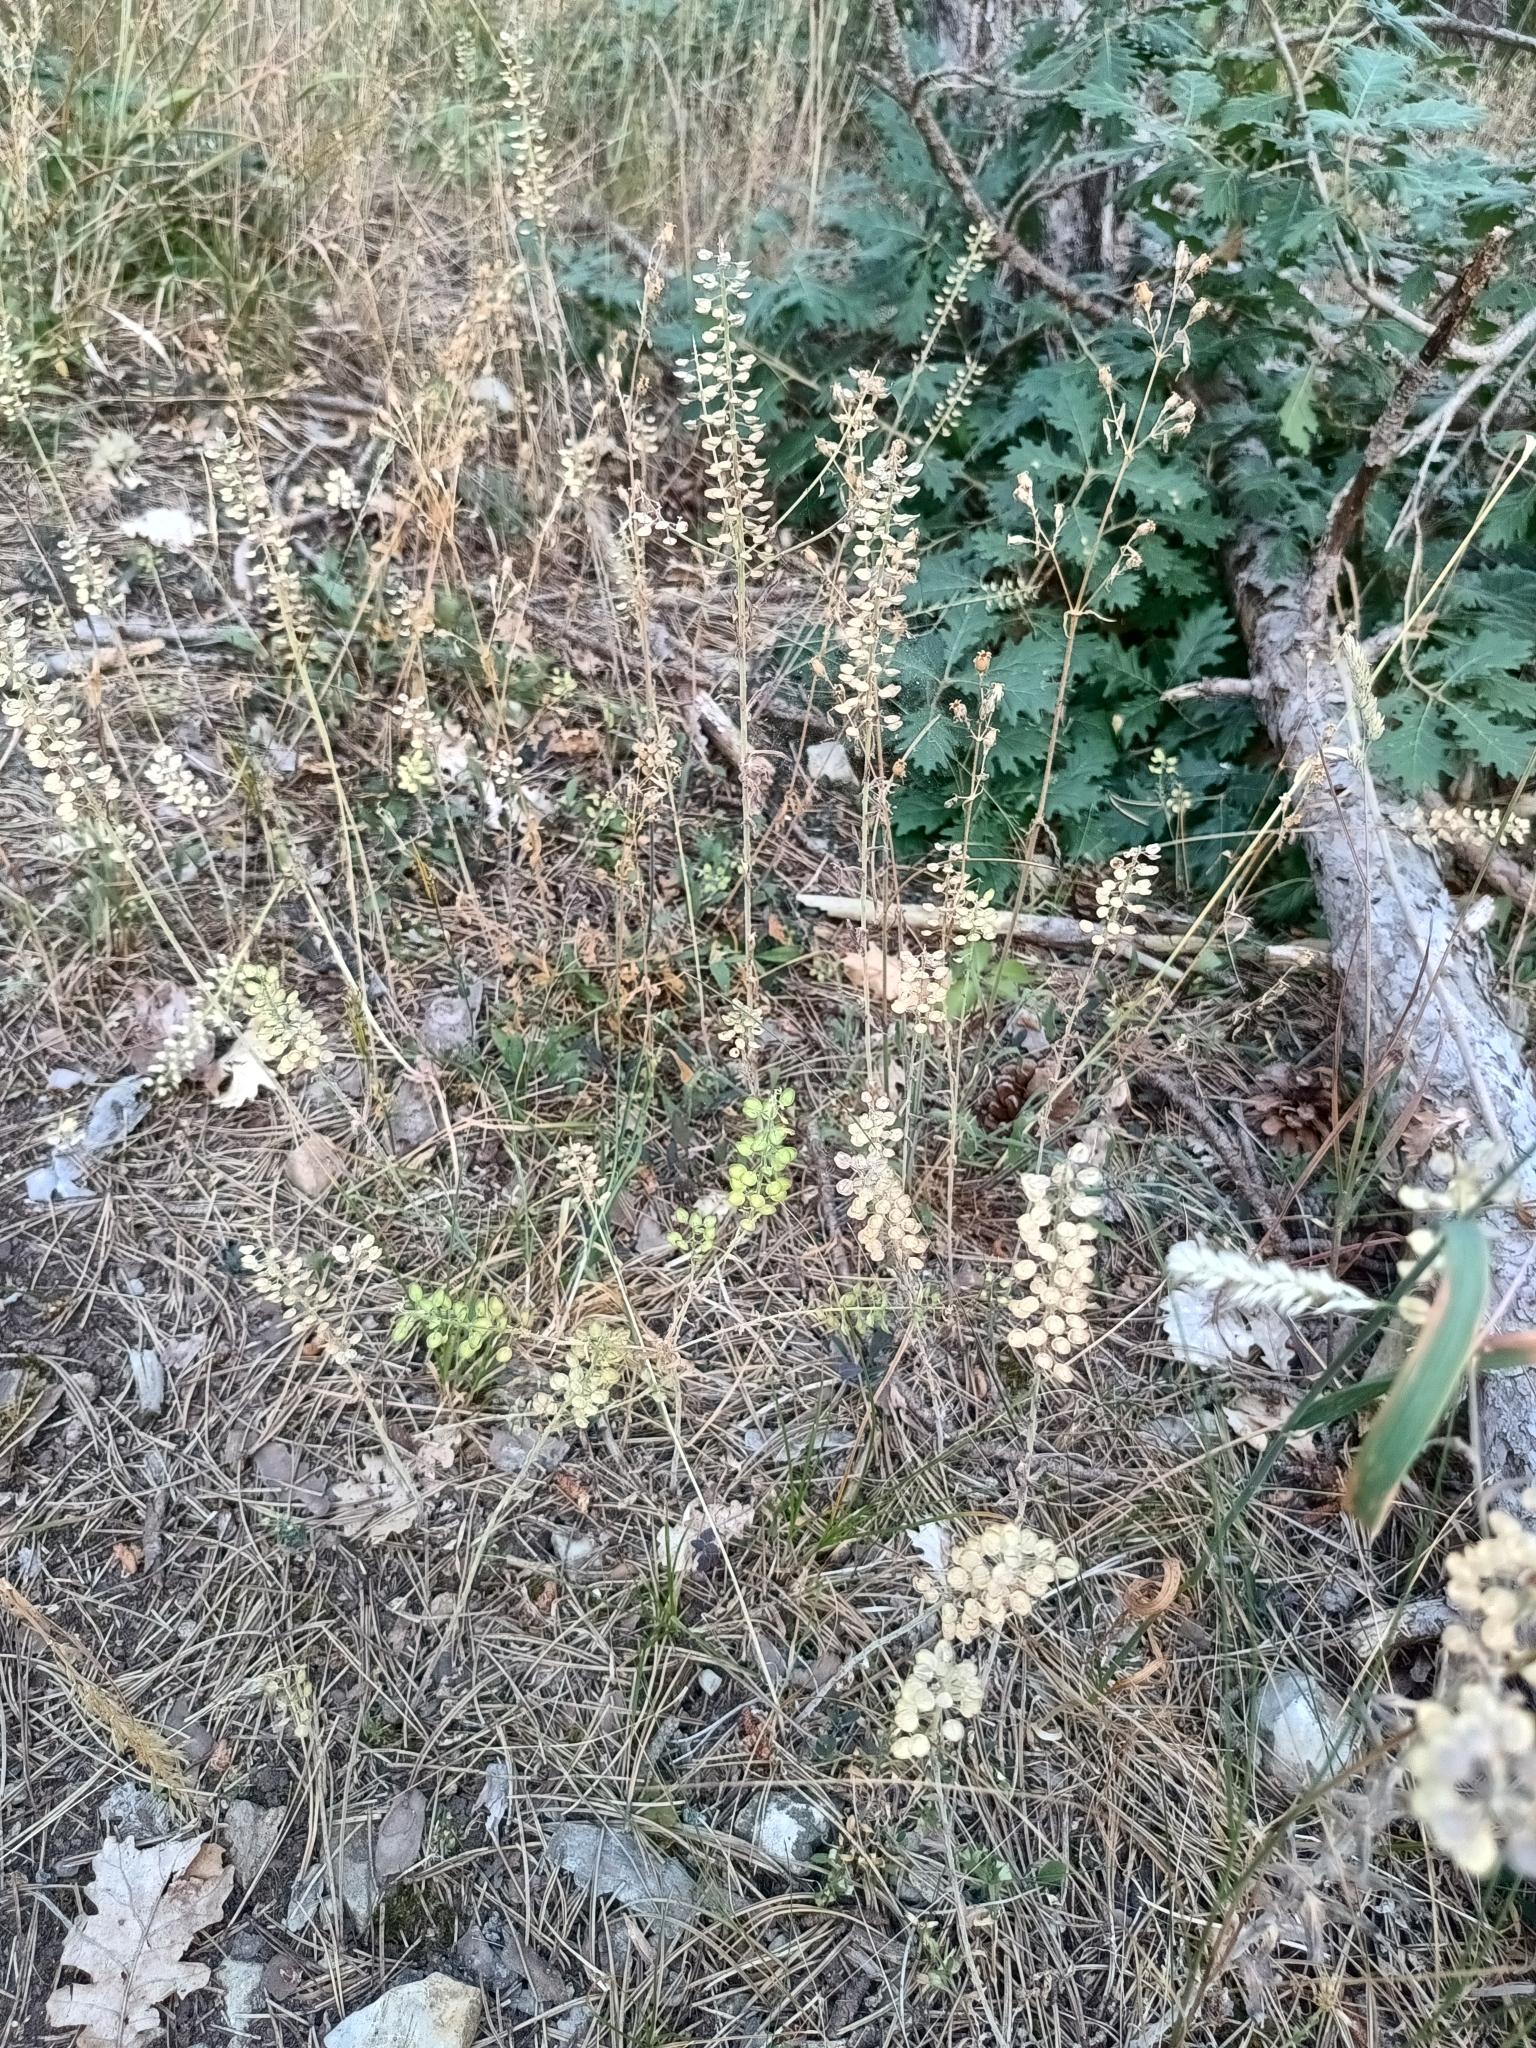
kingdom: Plantae
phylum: Tracheophyta
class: Magnoliopsida
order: Brassicales
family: Brassicaceae
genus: Lepidium
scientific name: Lepidium campestre
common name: Field pepperwort
